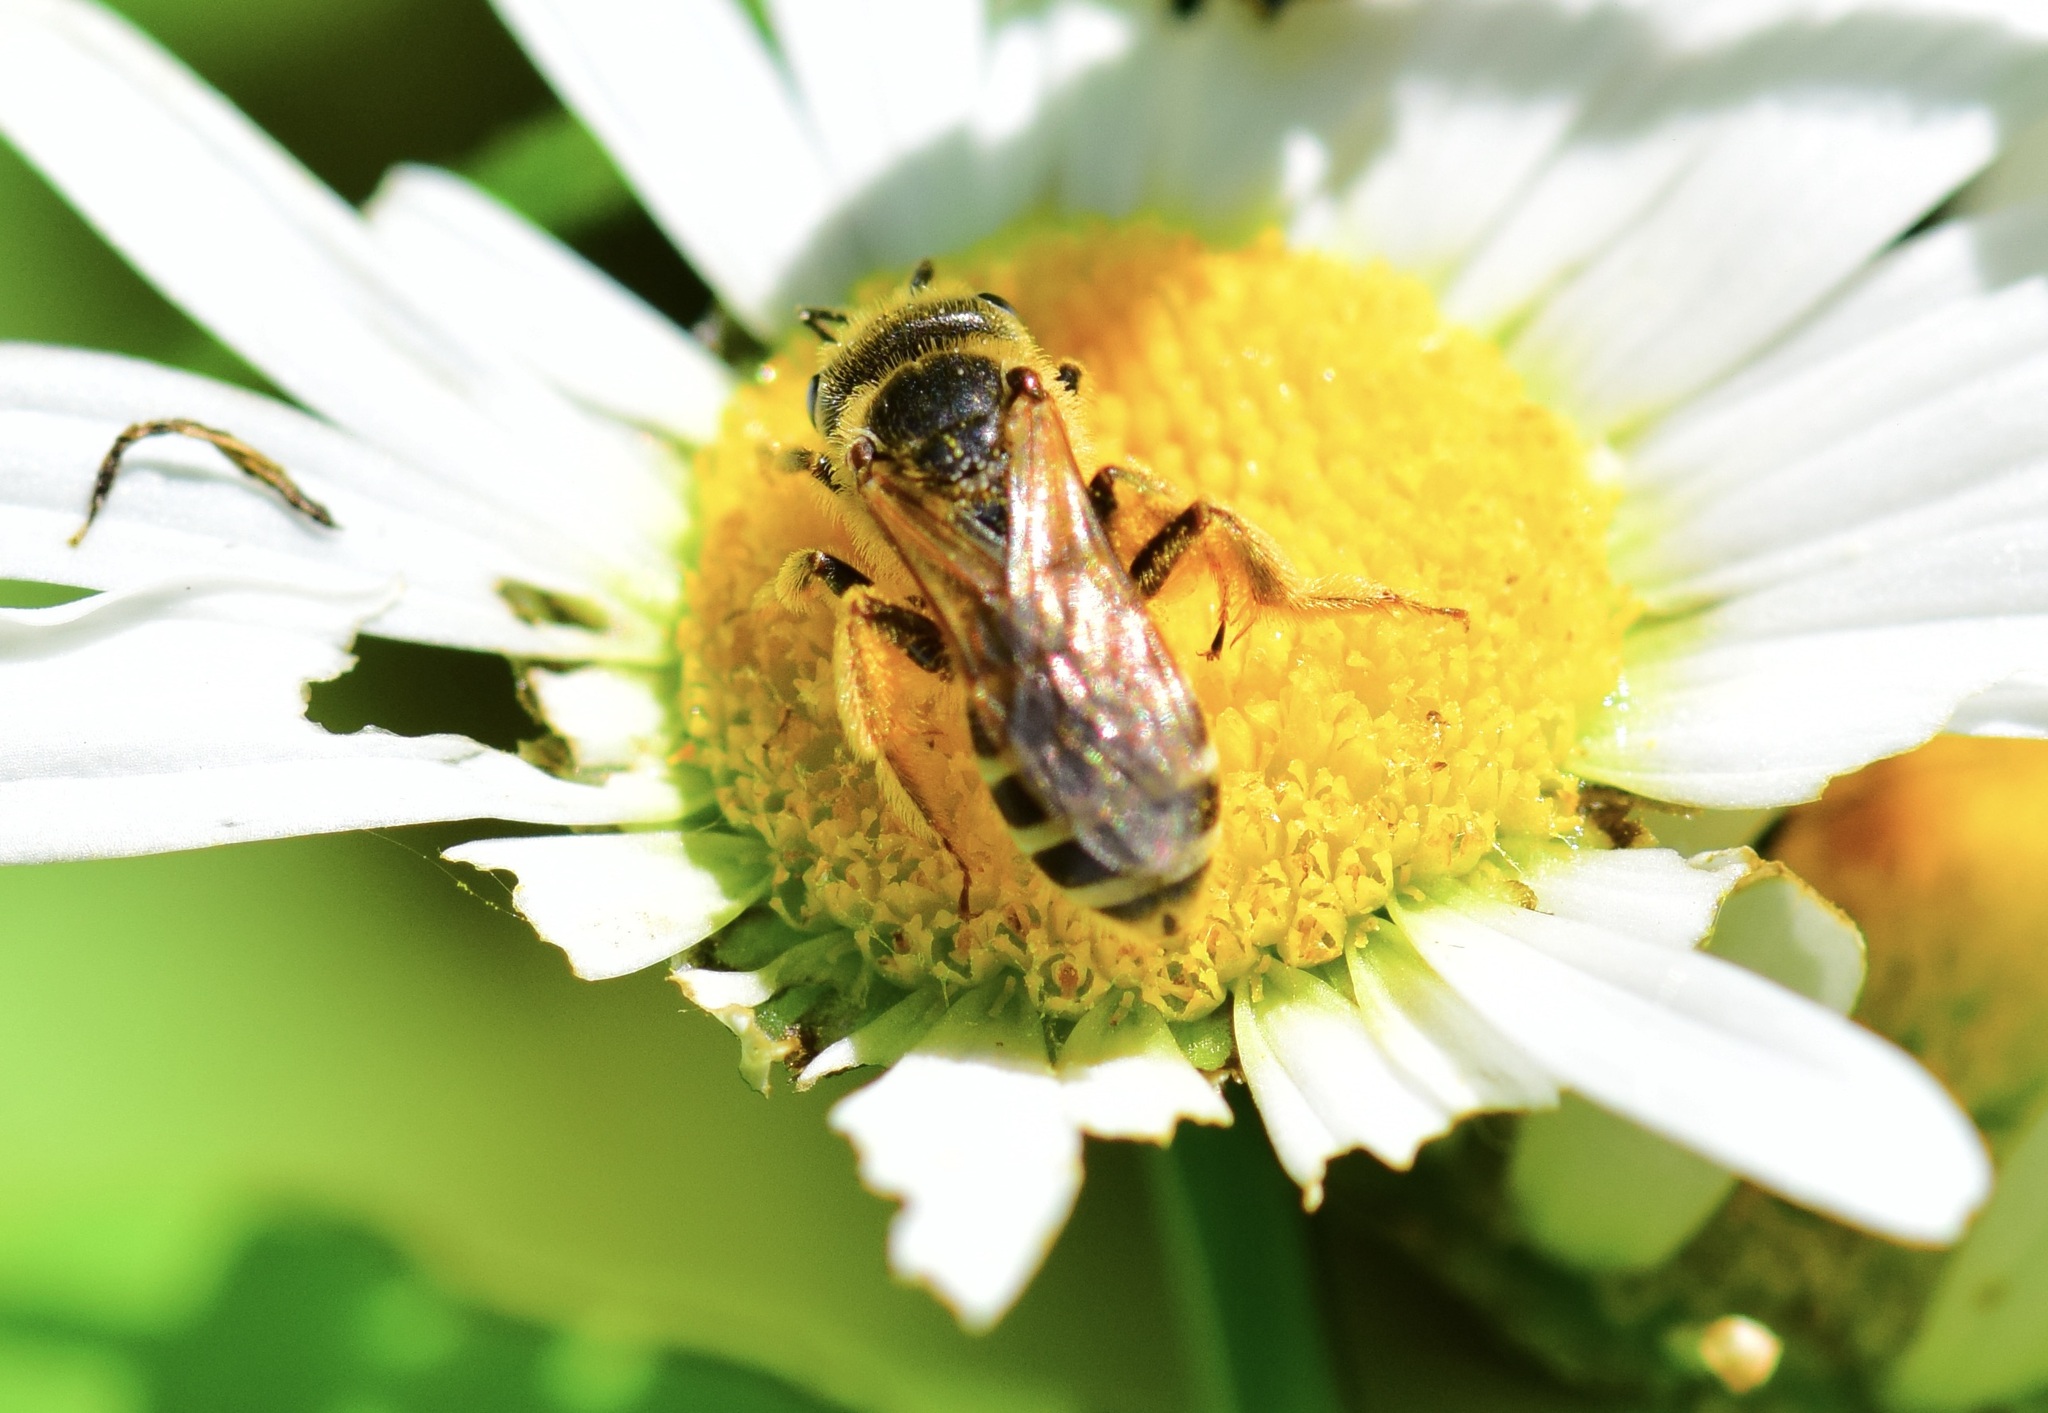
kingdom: Animalia
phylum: Arthropoda
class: Insecta
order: Hymenoptera
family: Halictidae
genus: Halictus
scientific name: Halictus ligatus
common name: Ligated furrow bee
